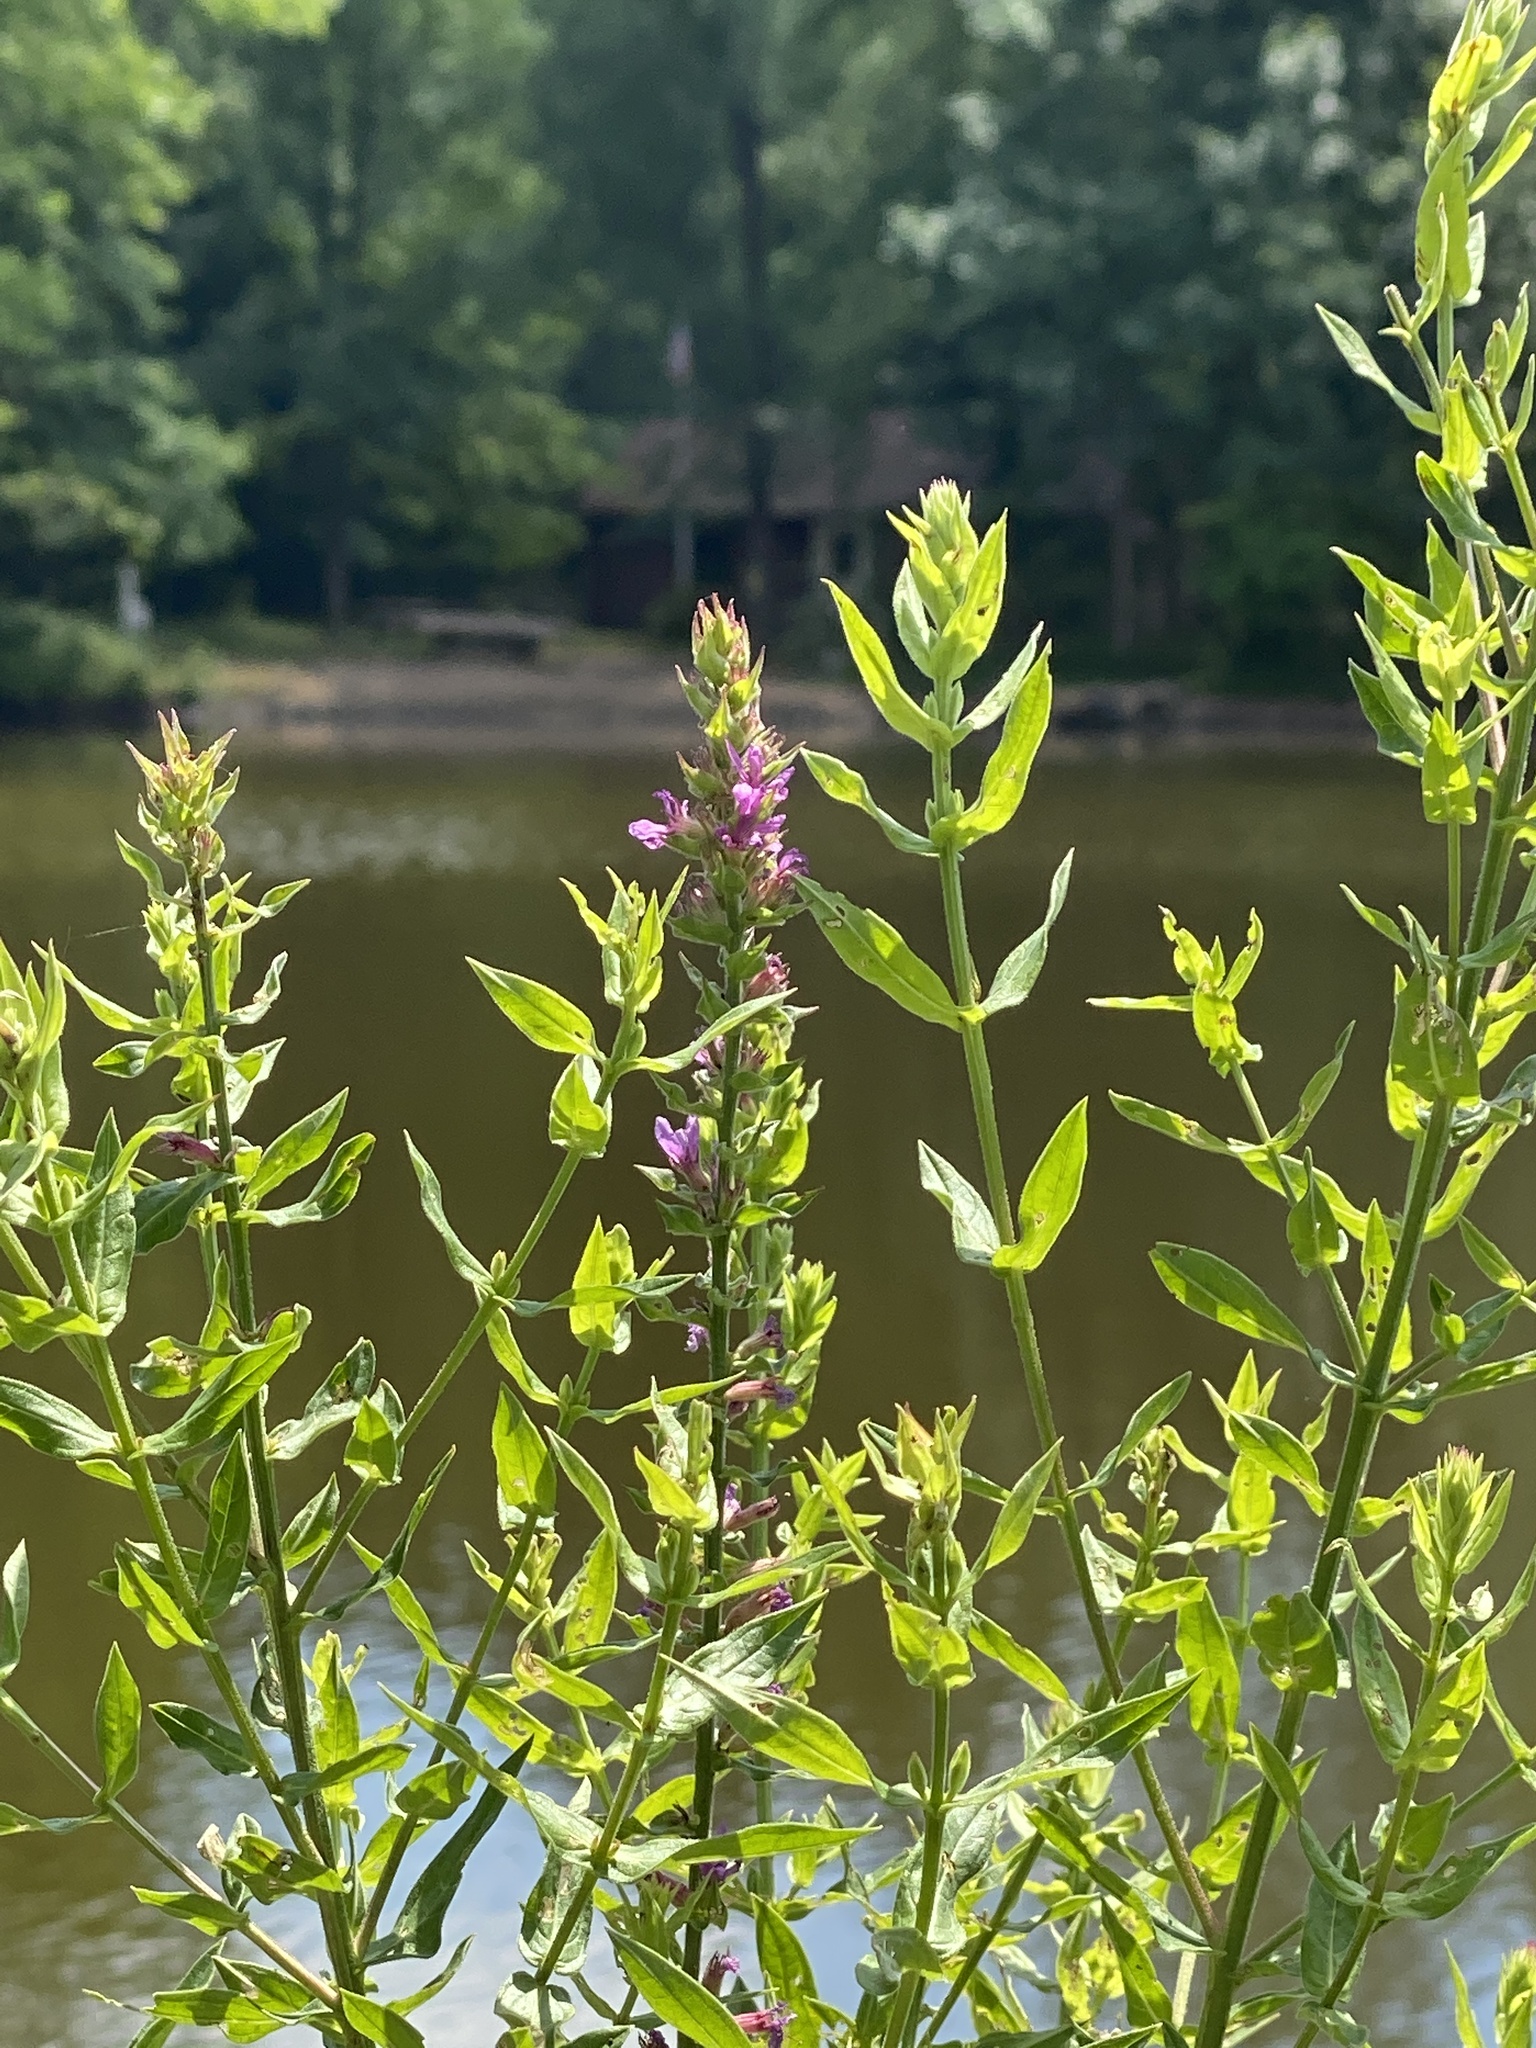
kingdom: Plantae
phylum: Tracheophyta
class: Magnoliopsida
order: Myrtales
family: Lythraceae
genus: Lythrum
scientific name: Lythrum salicaria
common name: Purple loosestrife
